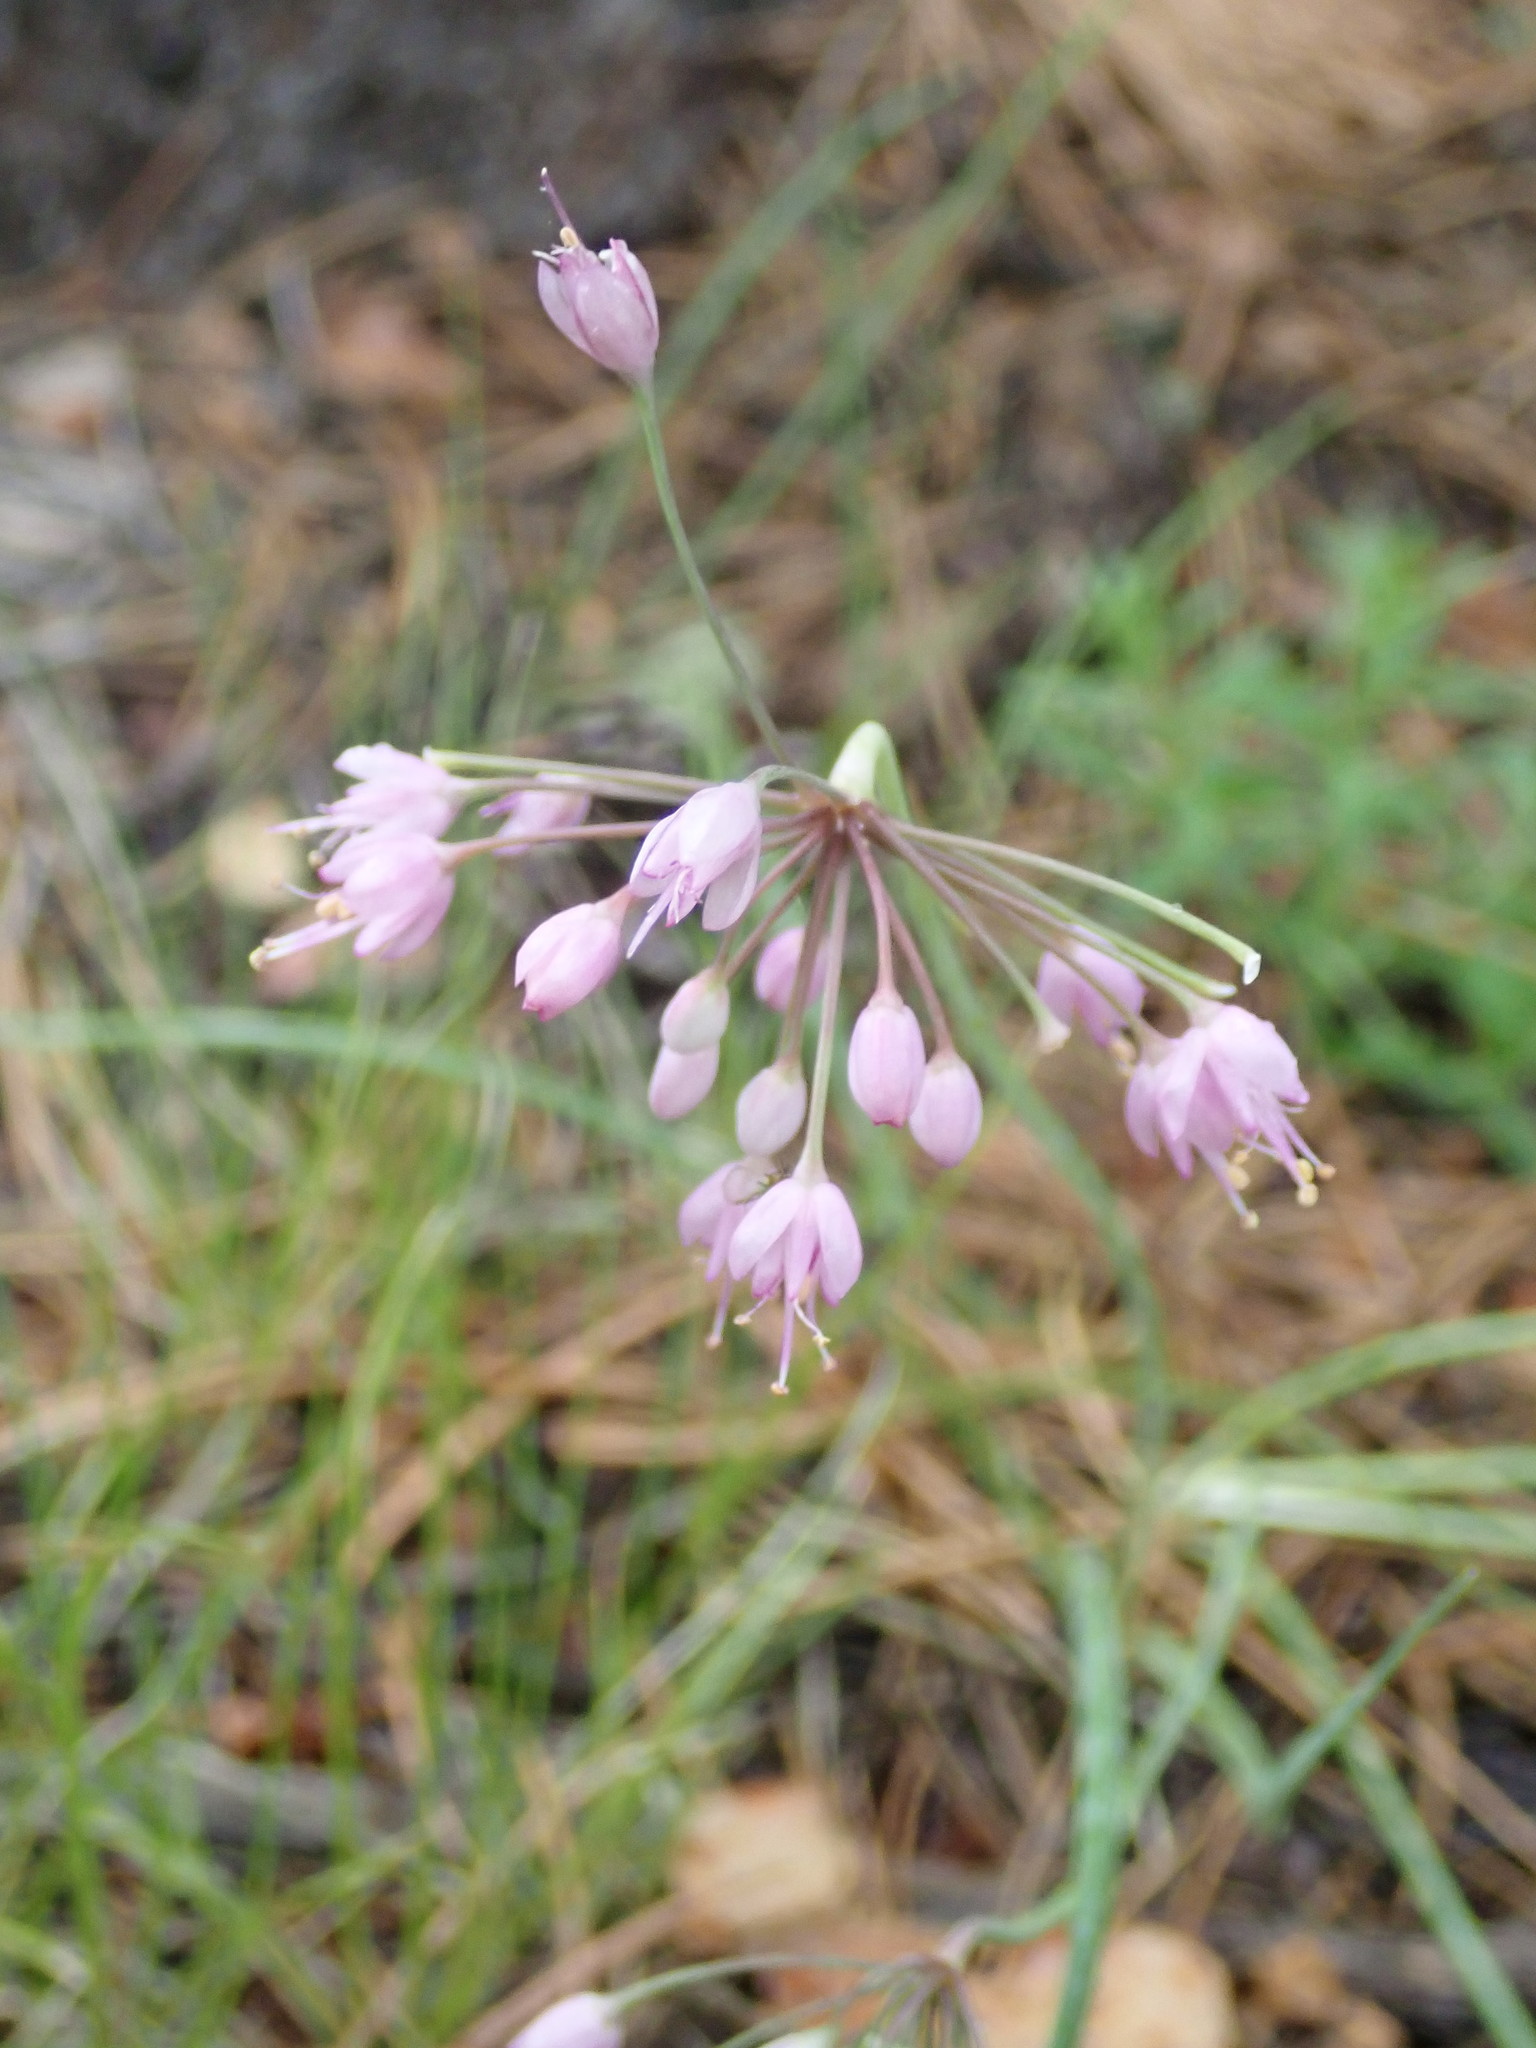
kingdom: Plantae
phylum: Tracheophyta
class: Liliopsida
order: Asparagales
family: Amaryllidaceae
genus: Allium
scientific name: Allium cernuum
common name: Nodding onion
